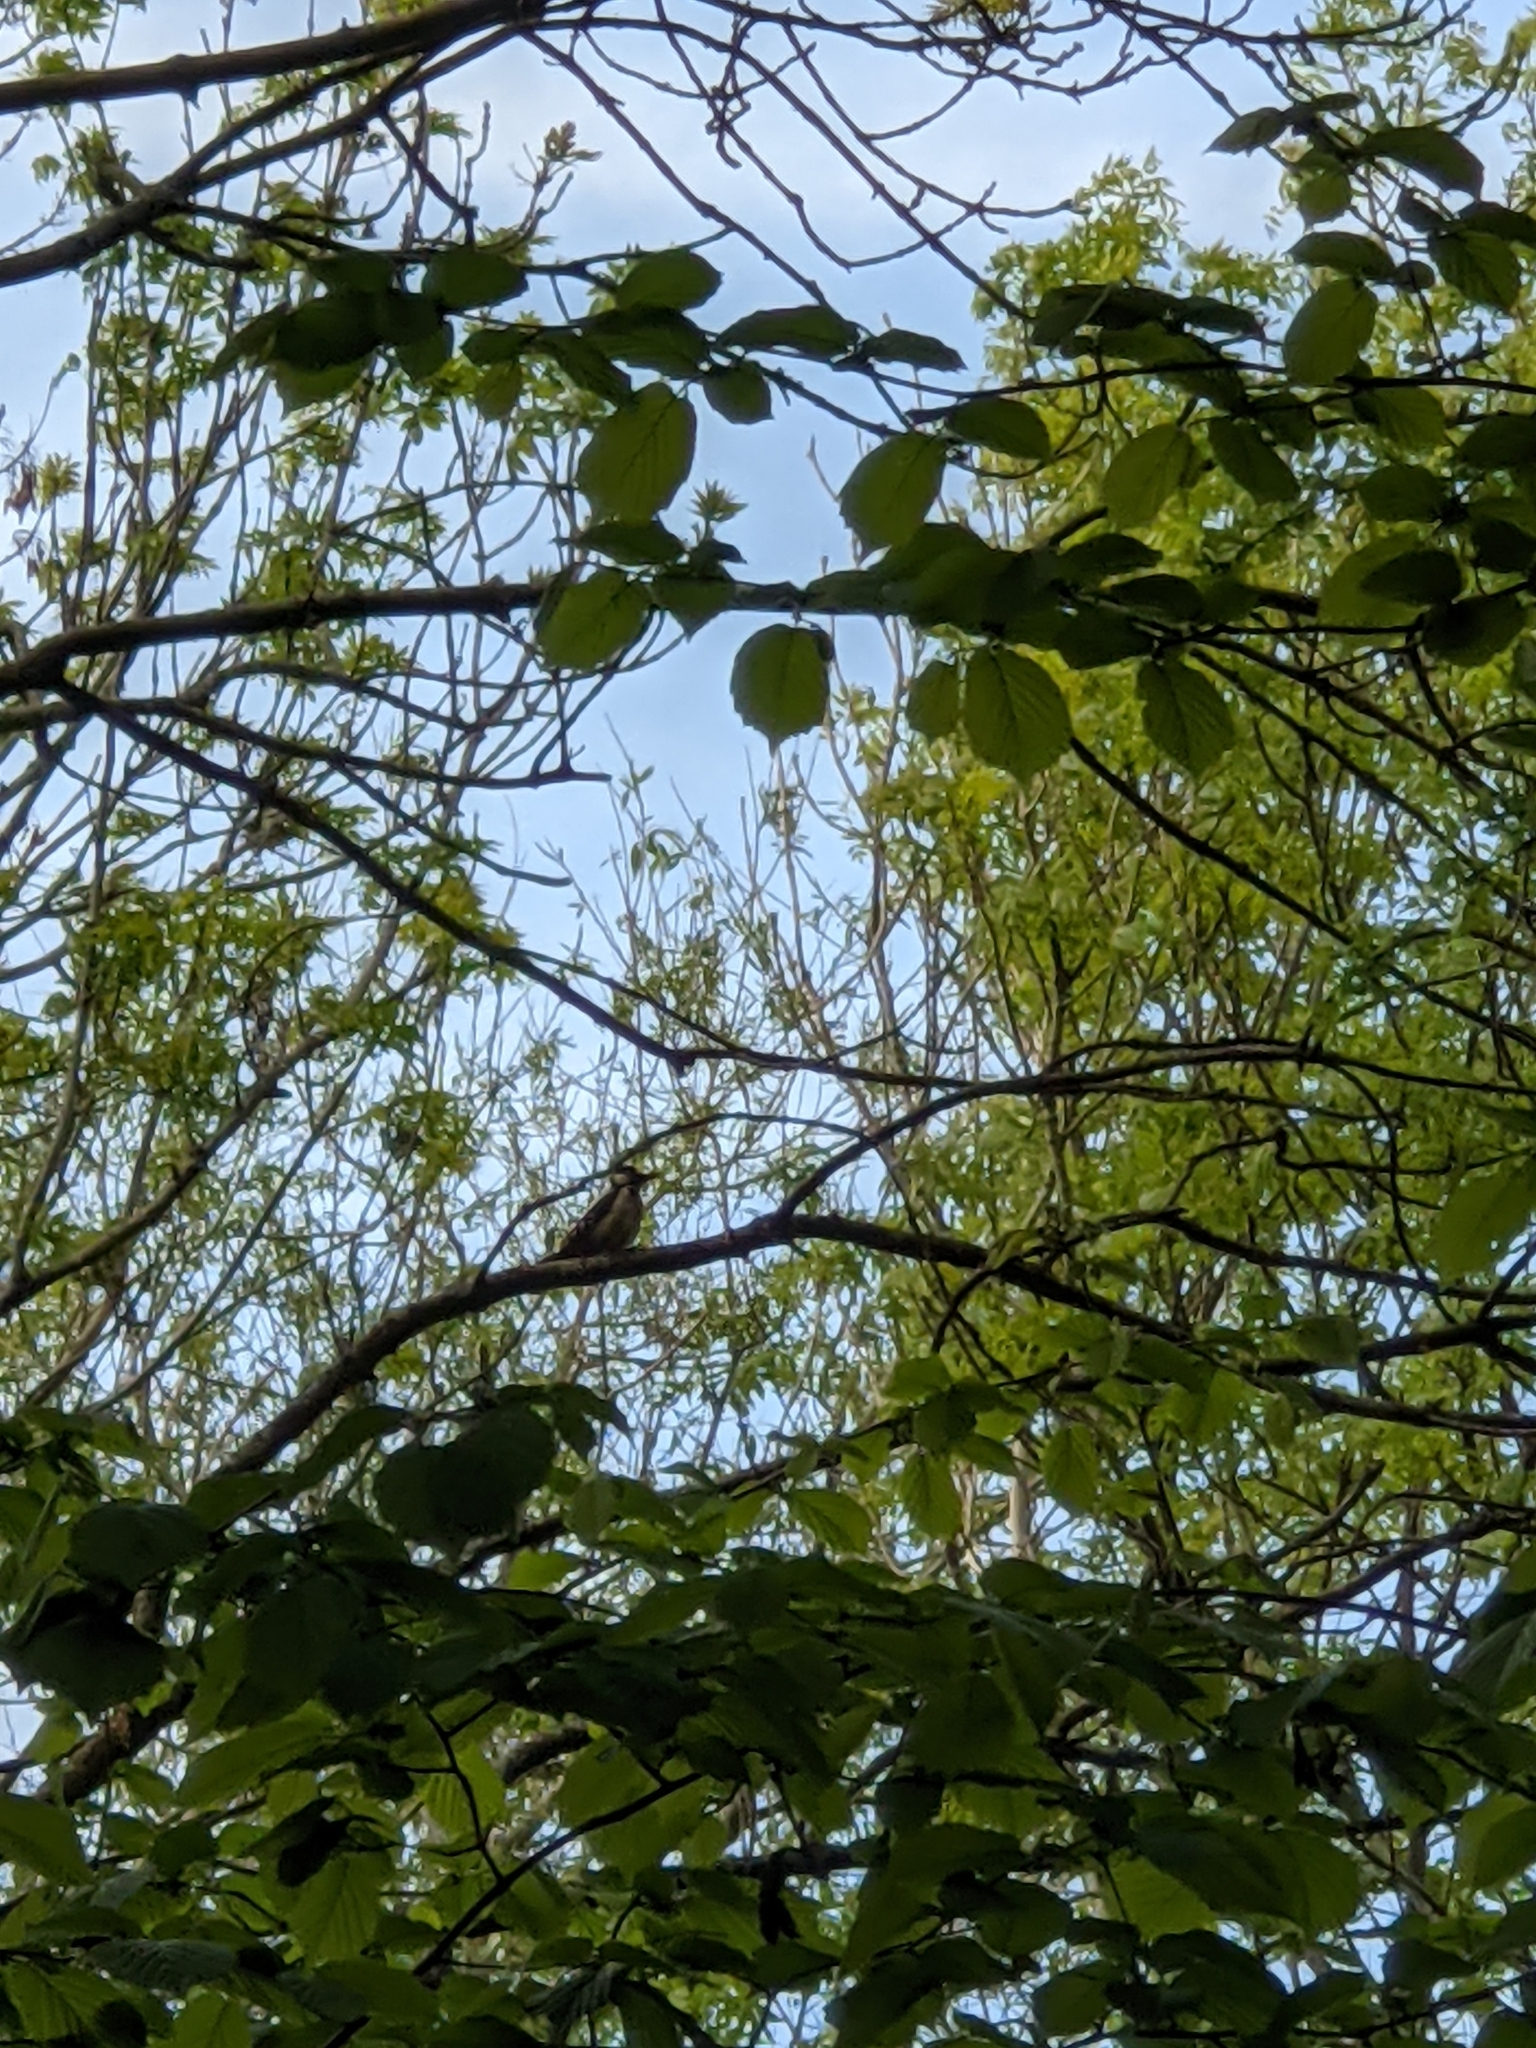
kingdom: Animalia
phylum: Chordata
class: Aves
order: Piciformes
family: Picidae
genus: Dendrocopos
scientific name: Dendrocopos major
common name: Great spotted woodpecker
